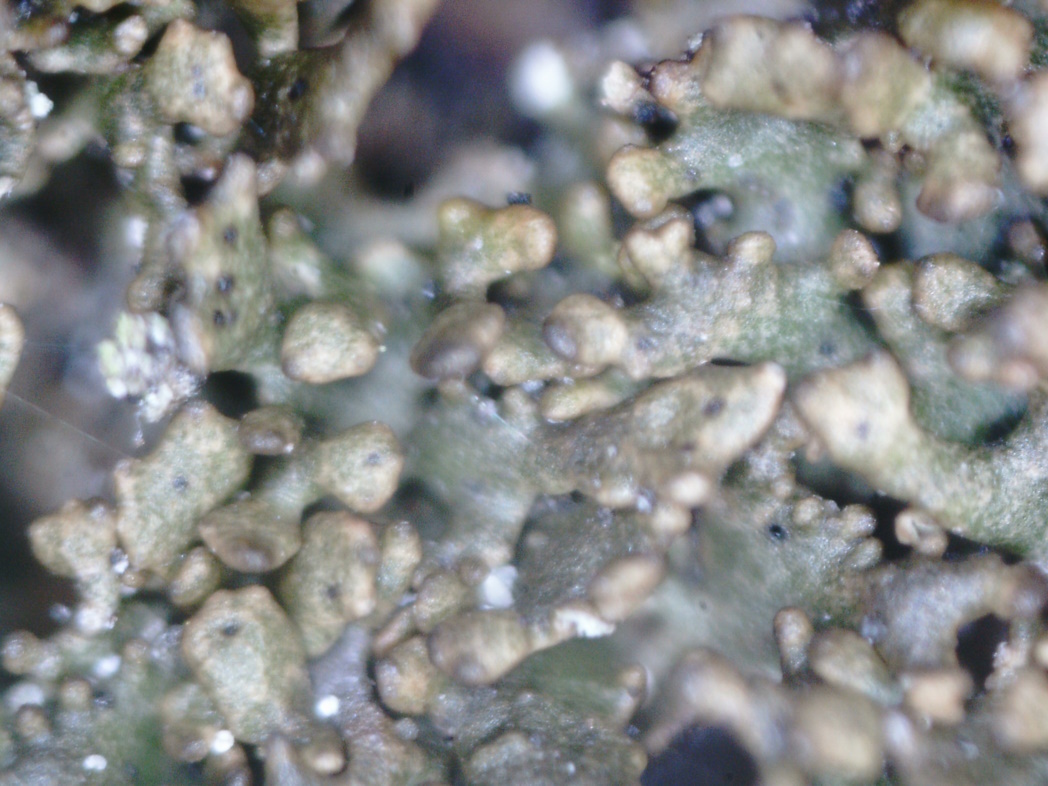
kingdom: Fungi
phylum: Ascomycota
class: Lecanoromycetes
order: Lecanorales
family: Parmeliaceae
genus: Montanelia
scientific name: Montanelia panniformis
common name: Shingled camouflage lichen
